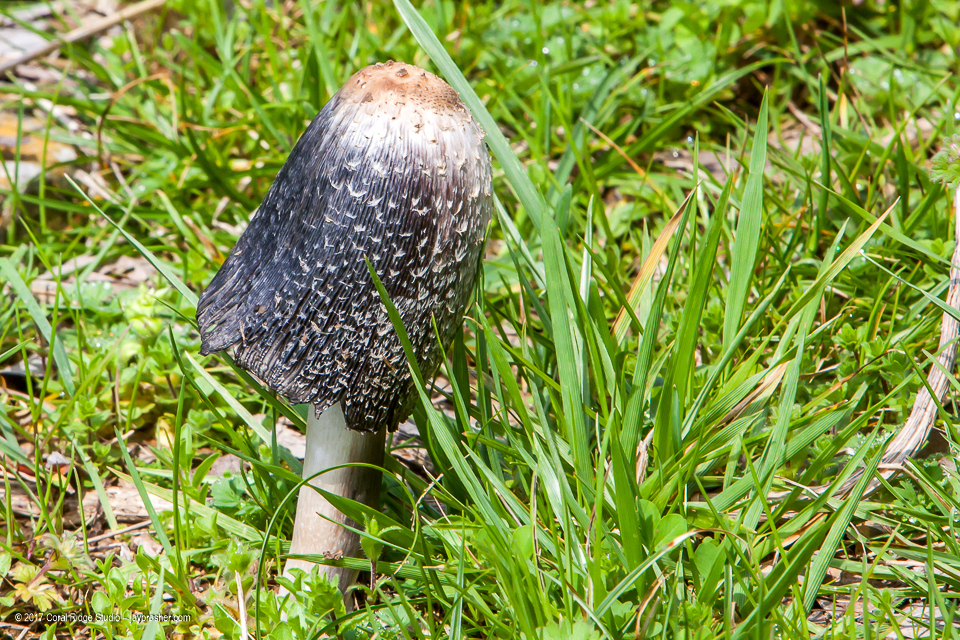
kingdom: Fungi
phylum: Basidiomycota
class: Agaricomycetes
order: Agaricales
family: Agaricaceae
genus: Coprinus
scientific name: Coprinus comatus
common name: Lawyer's wig
